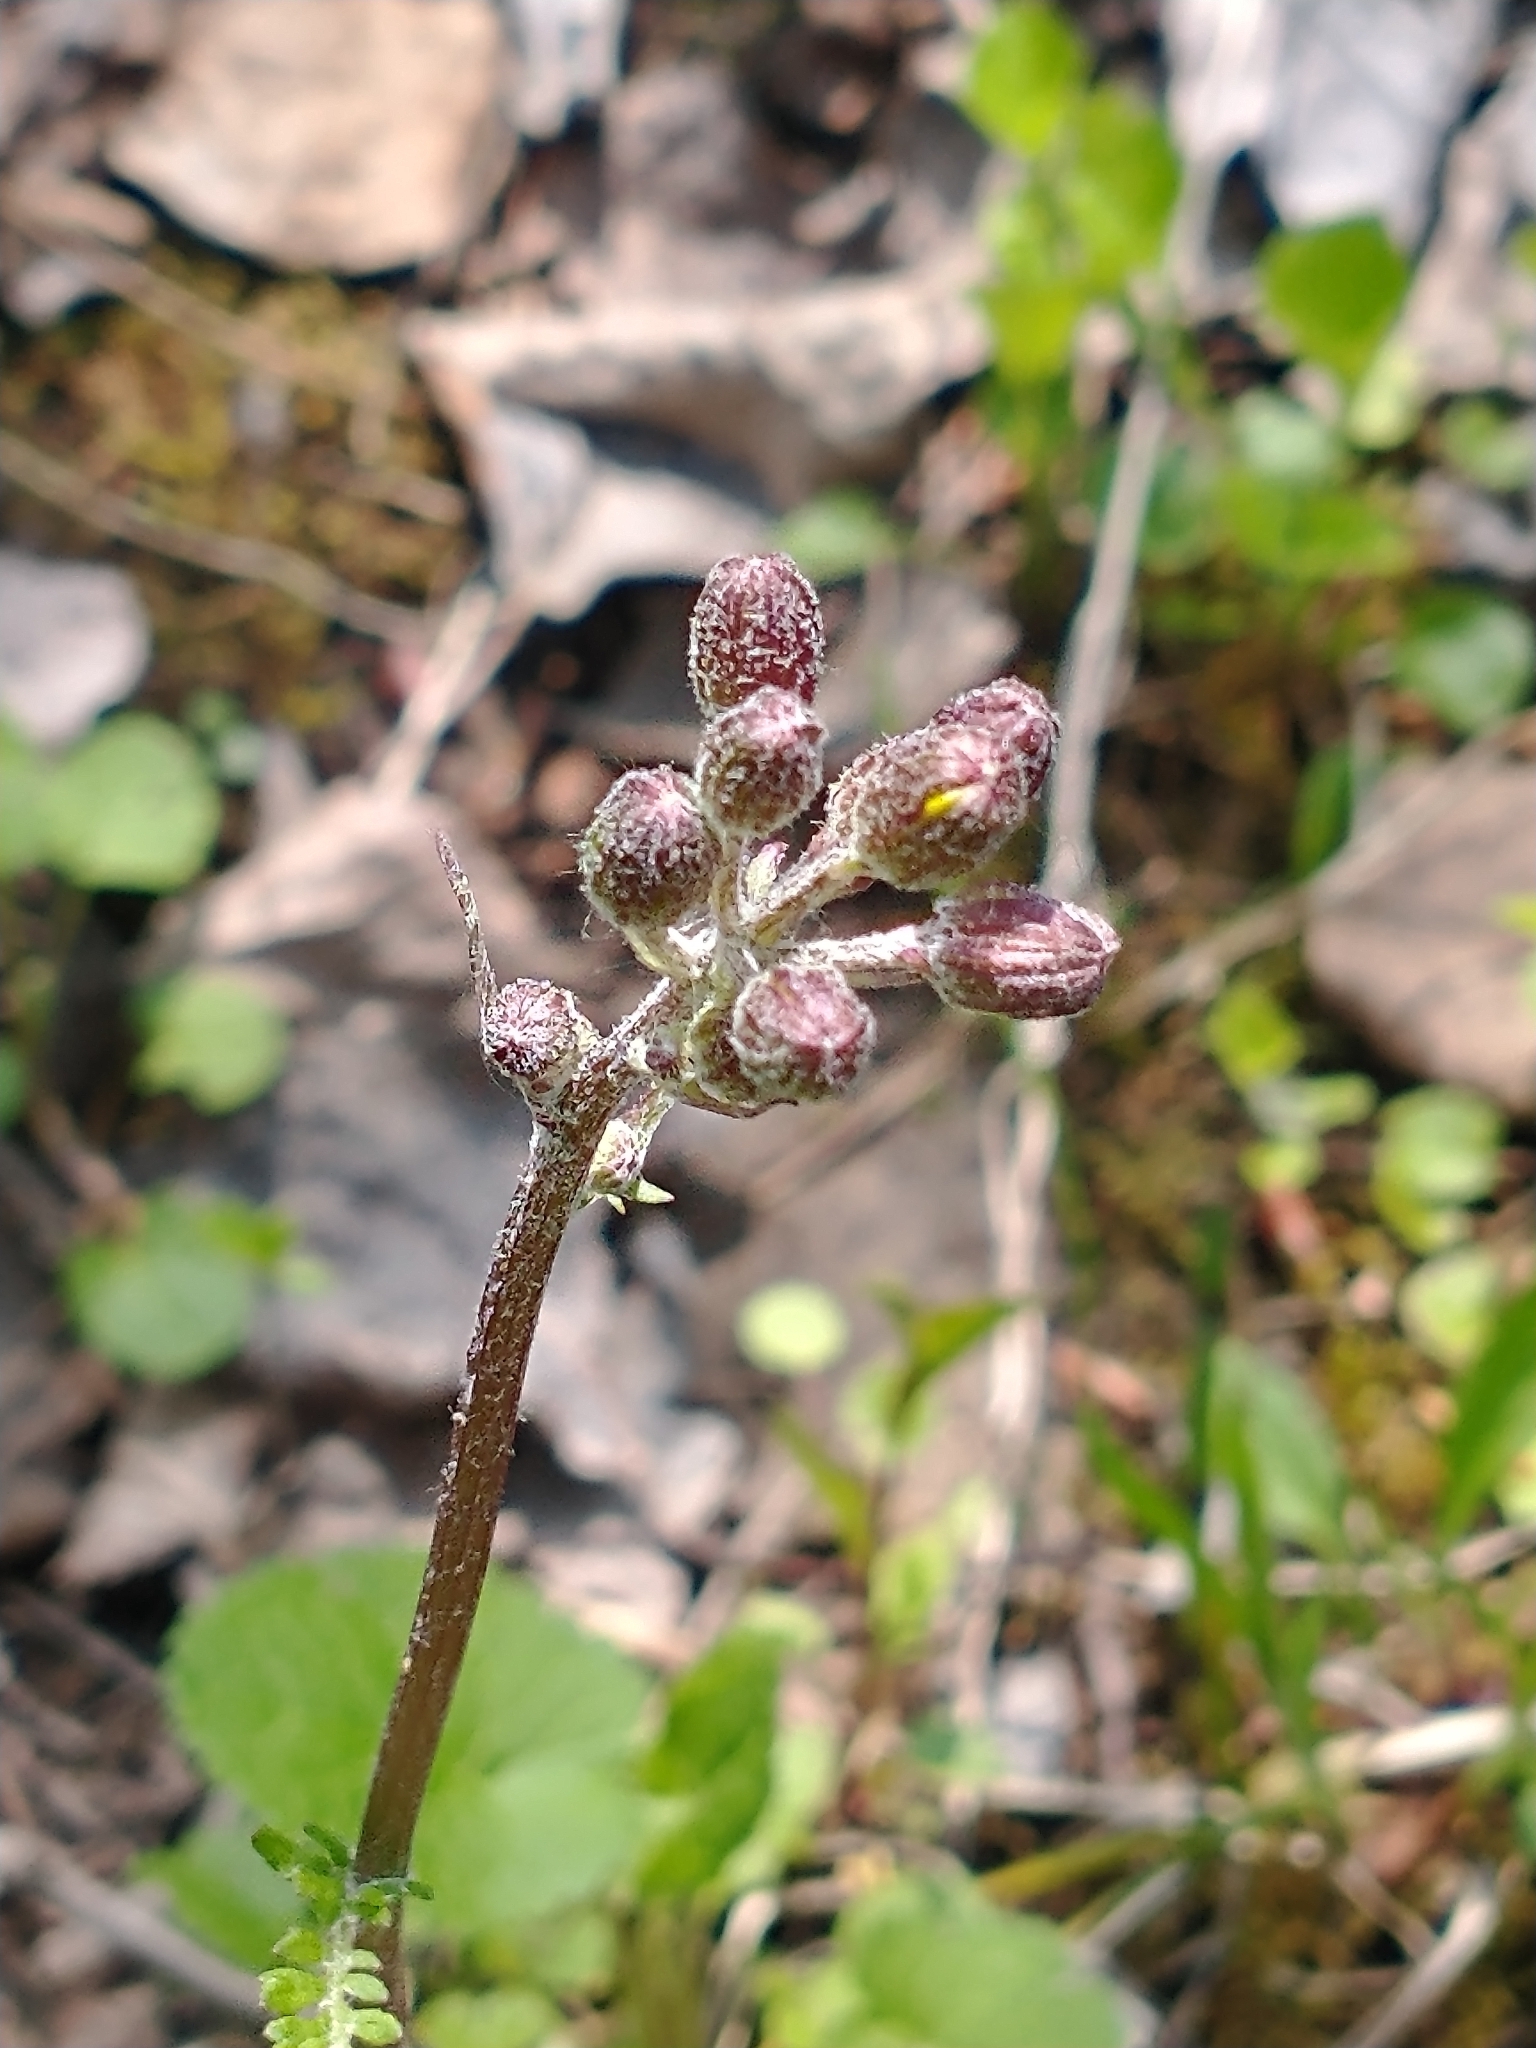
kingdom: Plantae
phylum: Tracheophyta
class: Magnoliopsida
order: Asterales
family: Asteraceae
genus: Packera
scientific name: Packera aurea
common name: Golden groundsel
